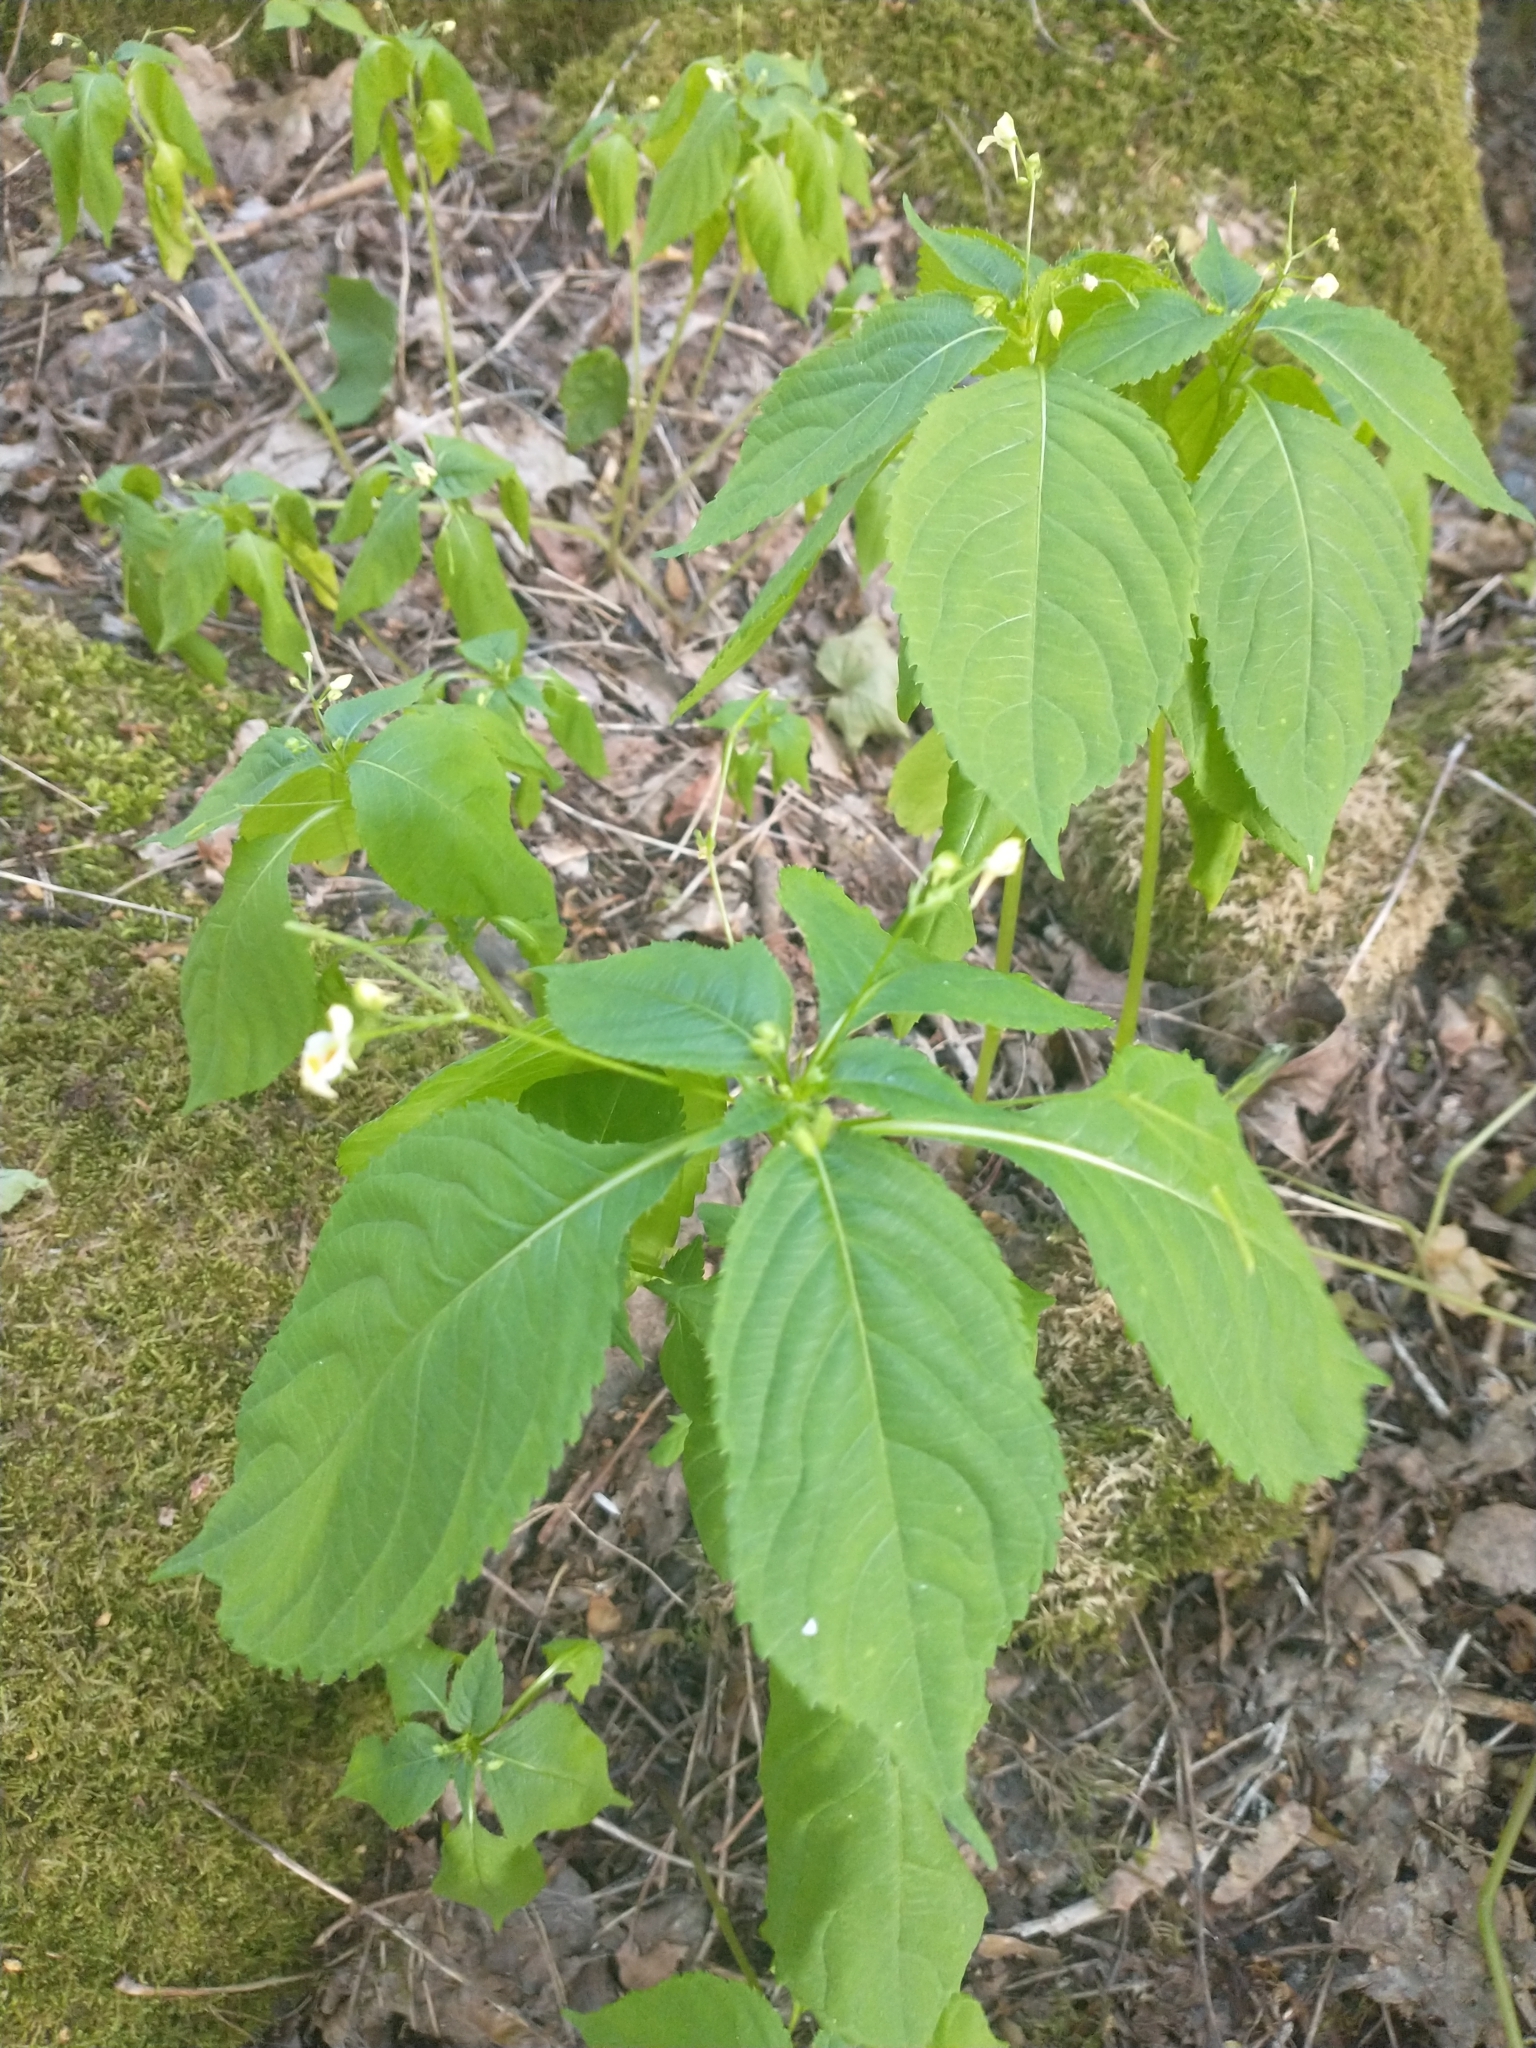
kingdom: Plantae
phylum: Tracheophyta
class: Magnoliopsida
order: Ericales
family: Balsaminaceae
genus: Impatiens
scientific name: Impatiens parviflora
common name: Small balsam
